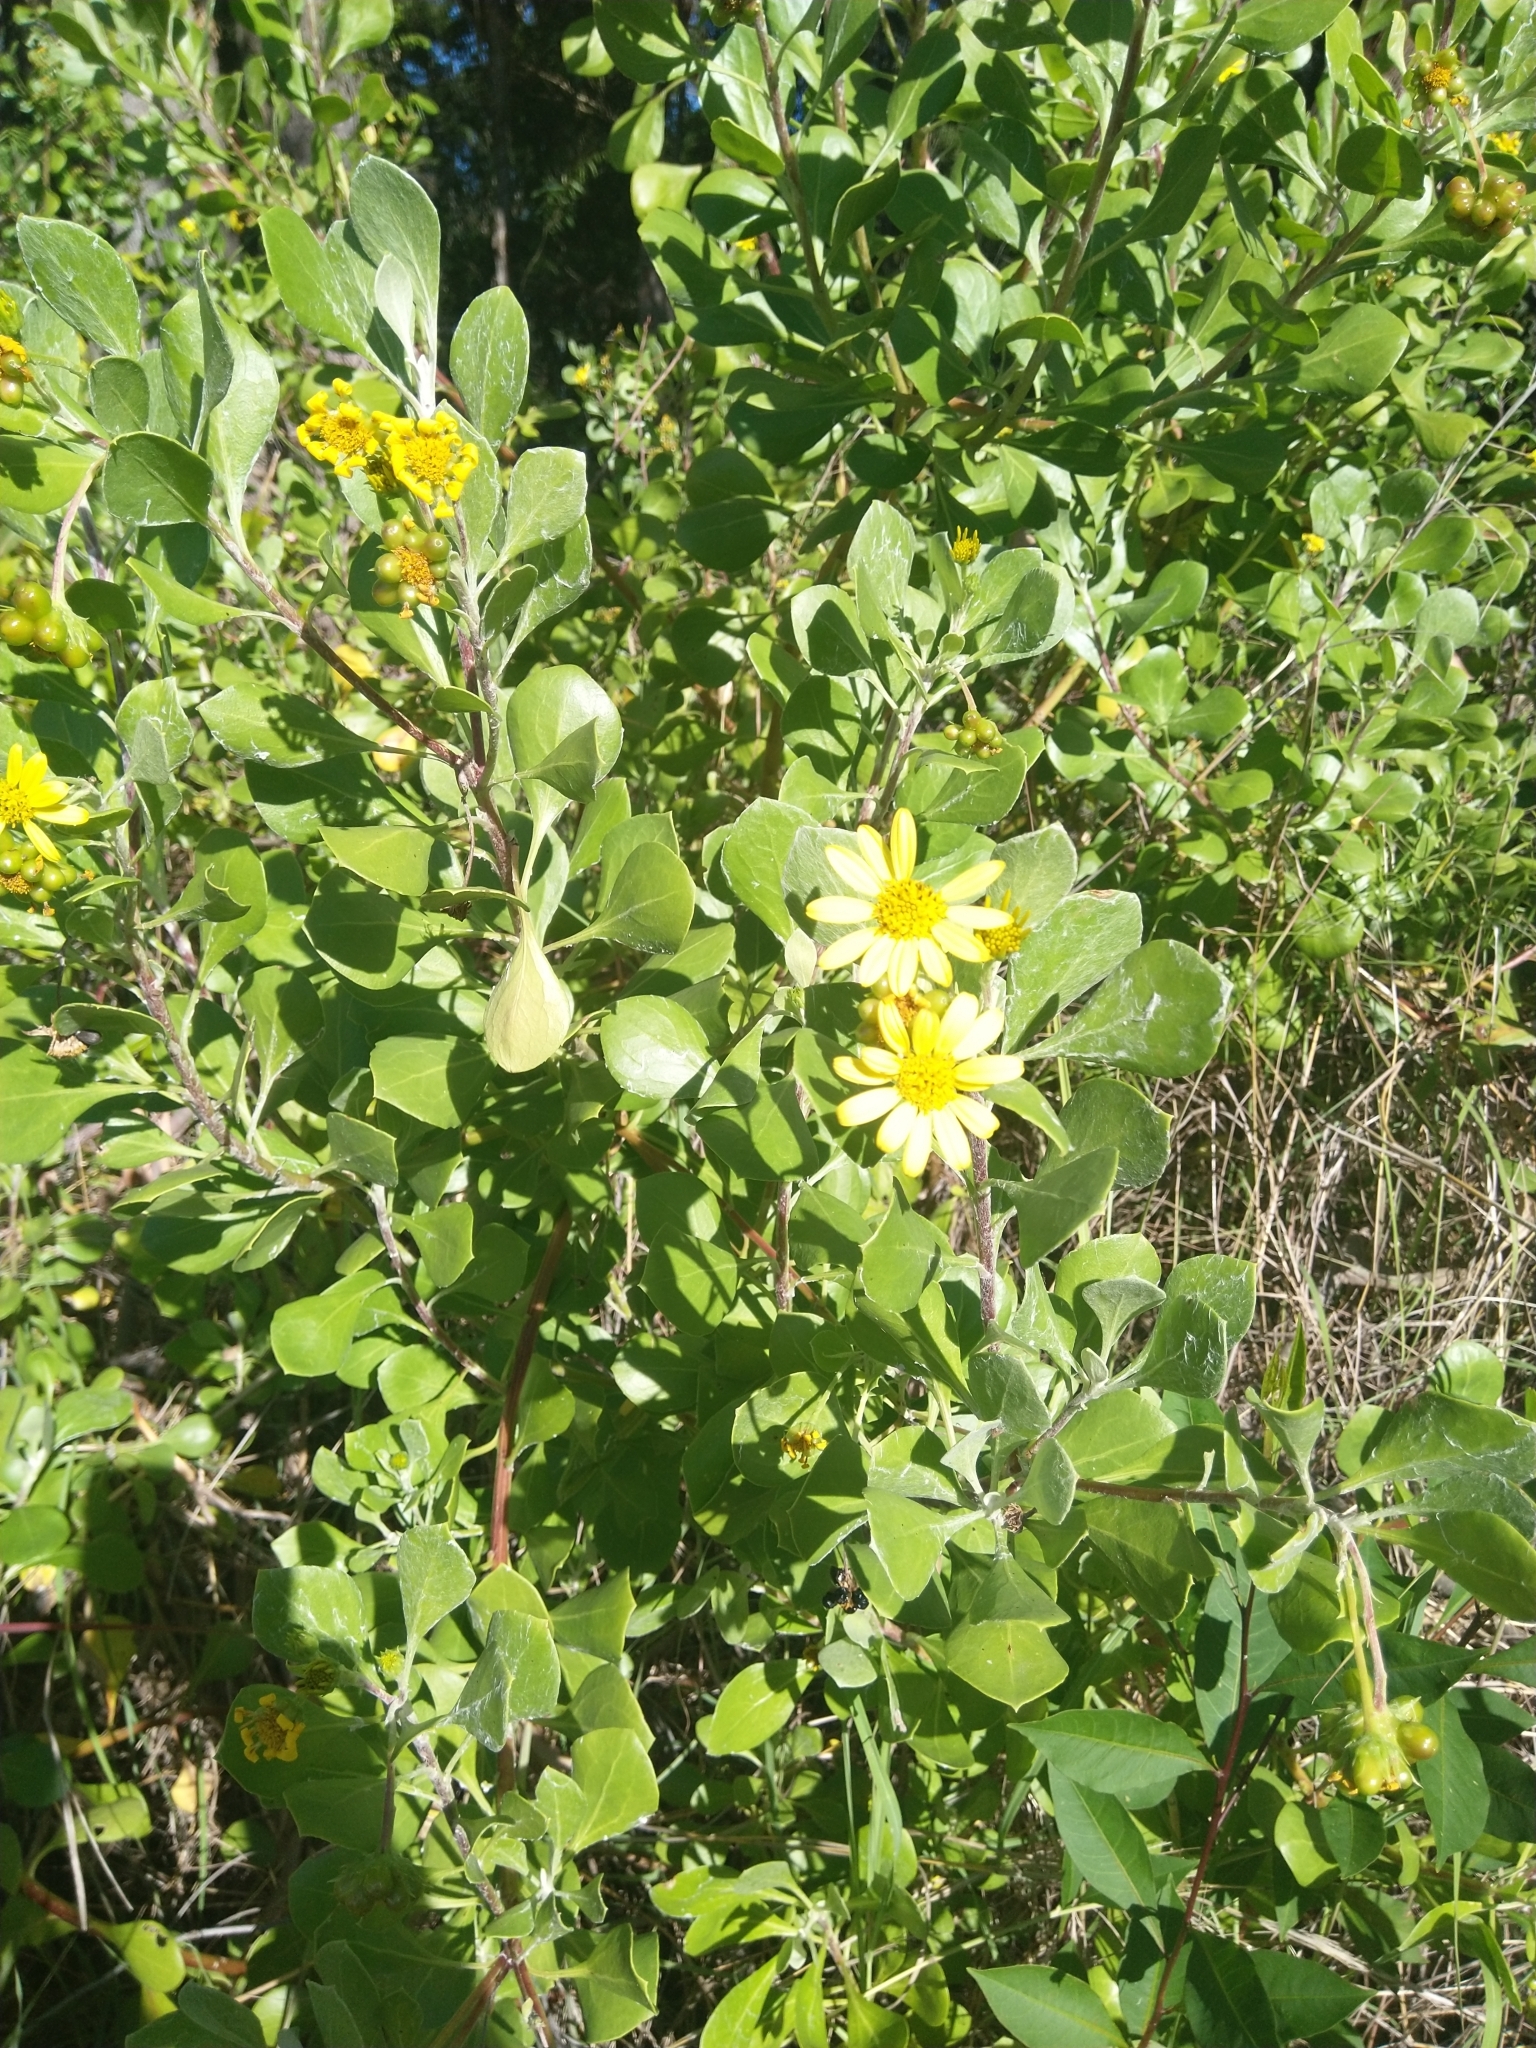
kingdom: Plantae
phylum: Tracheophyta
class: Magnoliopsida
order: Asterales
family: Asteraceae
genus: Osteospermum
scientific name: Osteospermum moniliferum
